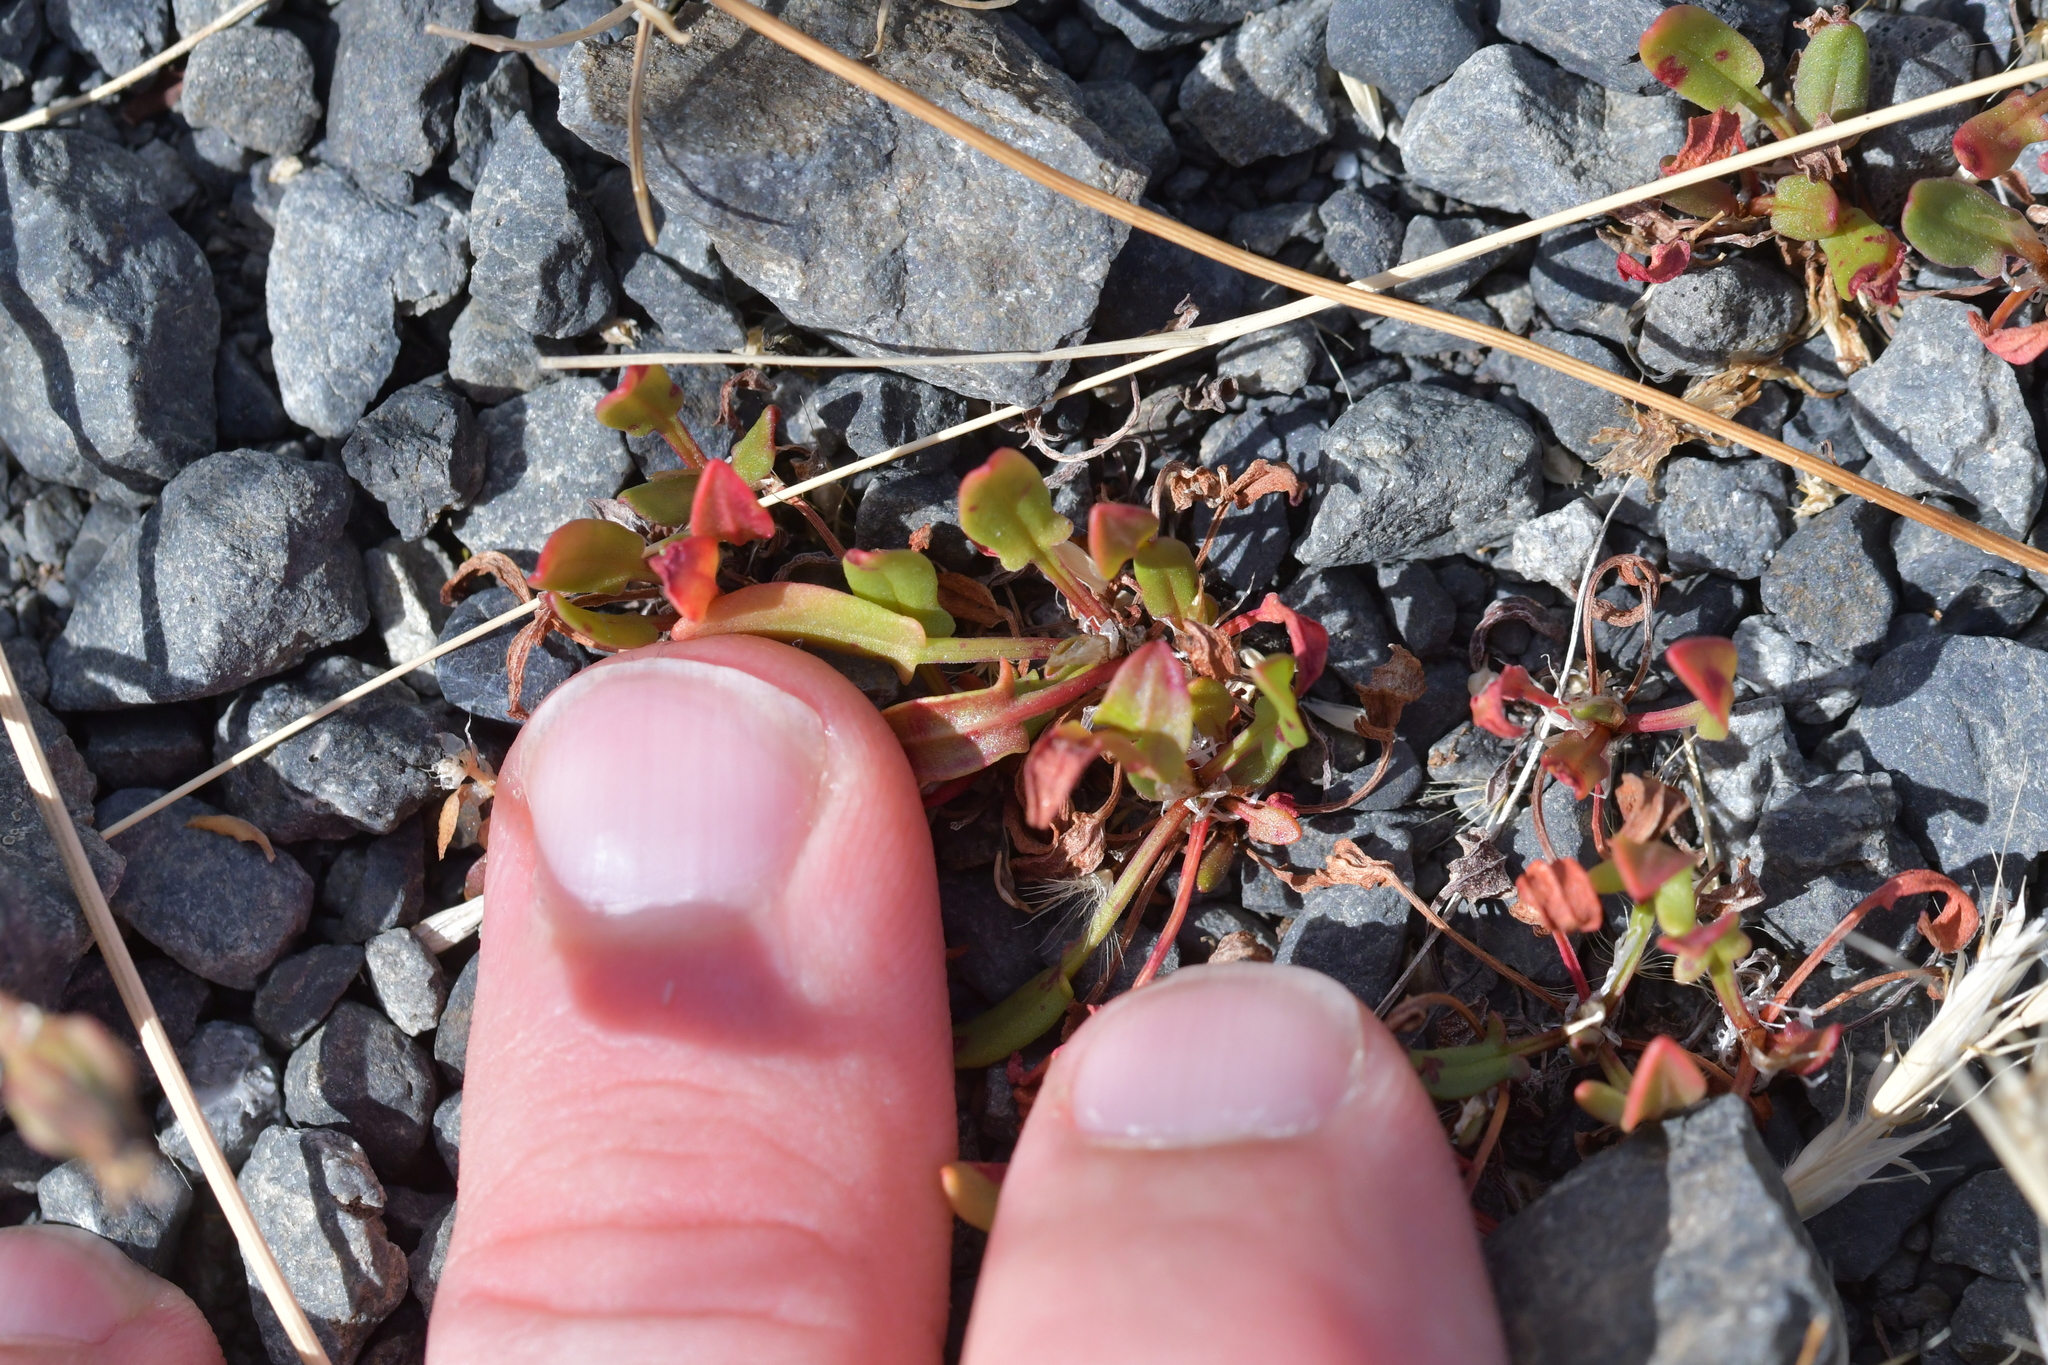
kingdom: Plantae
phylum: Tracheophyta
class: Magnoliopsida
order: Caryophyllales
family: Polygonaceae
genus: Rumex
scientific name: Rumex acetosella
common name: Common sheep sorrel
